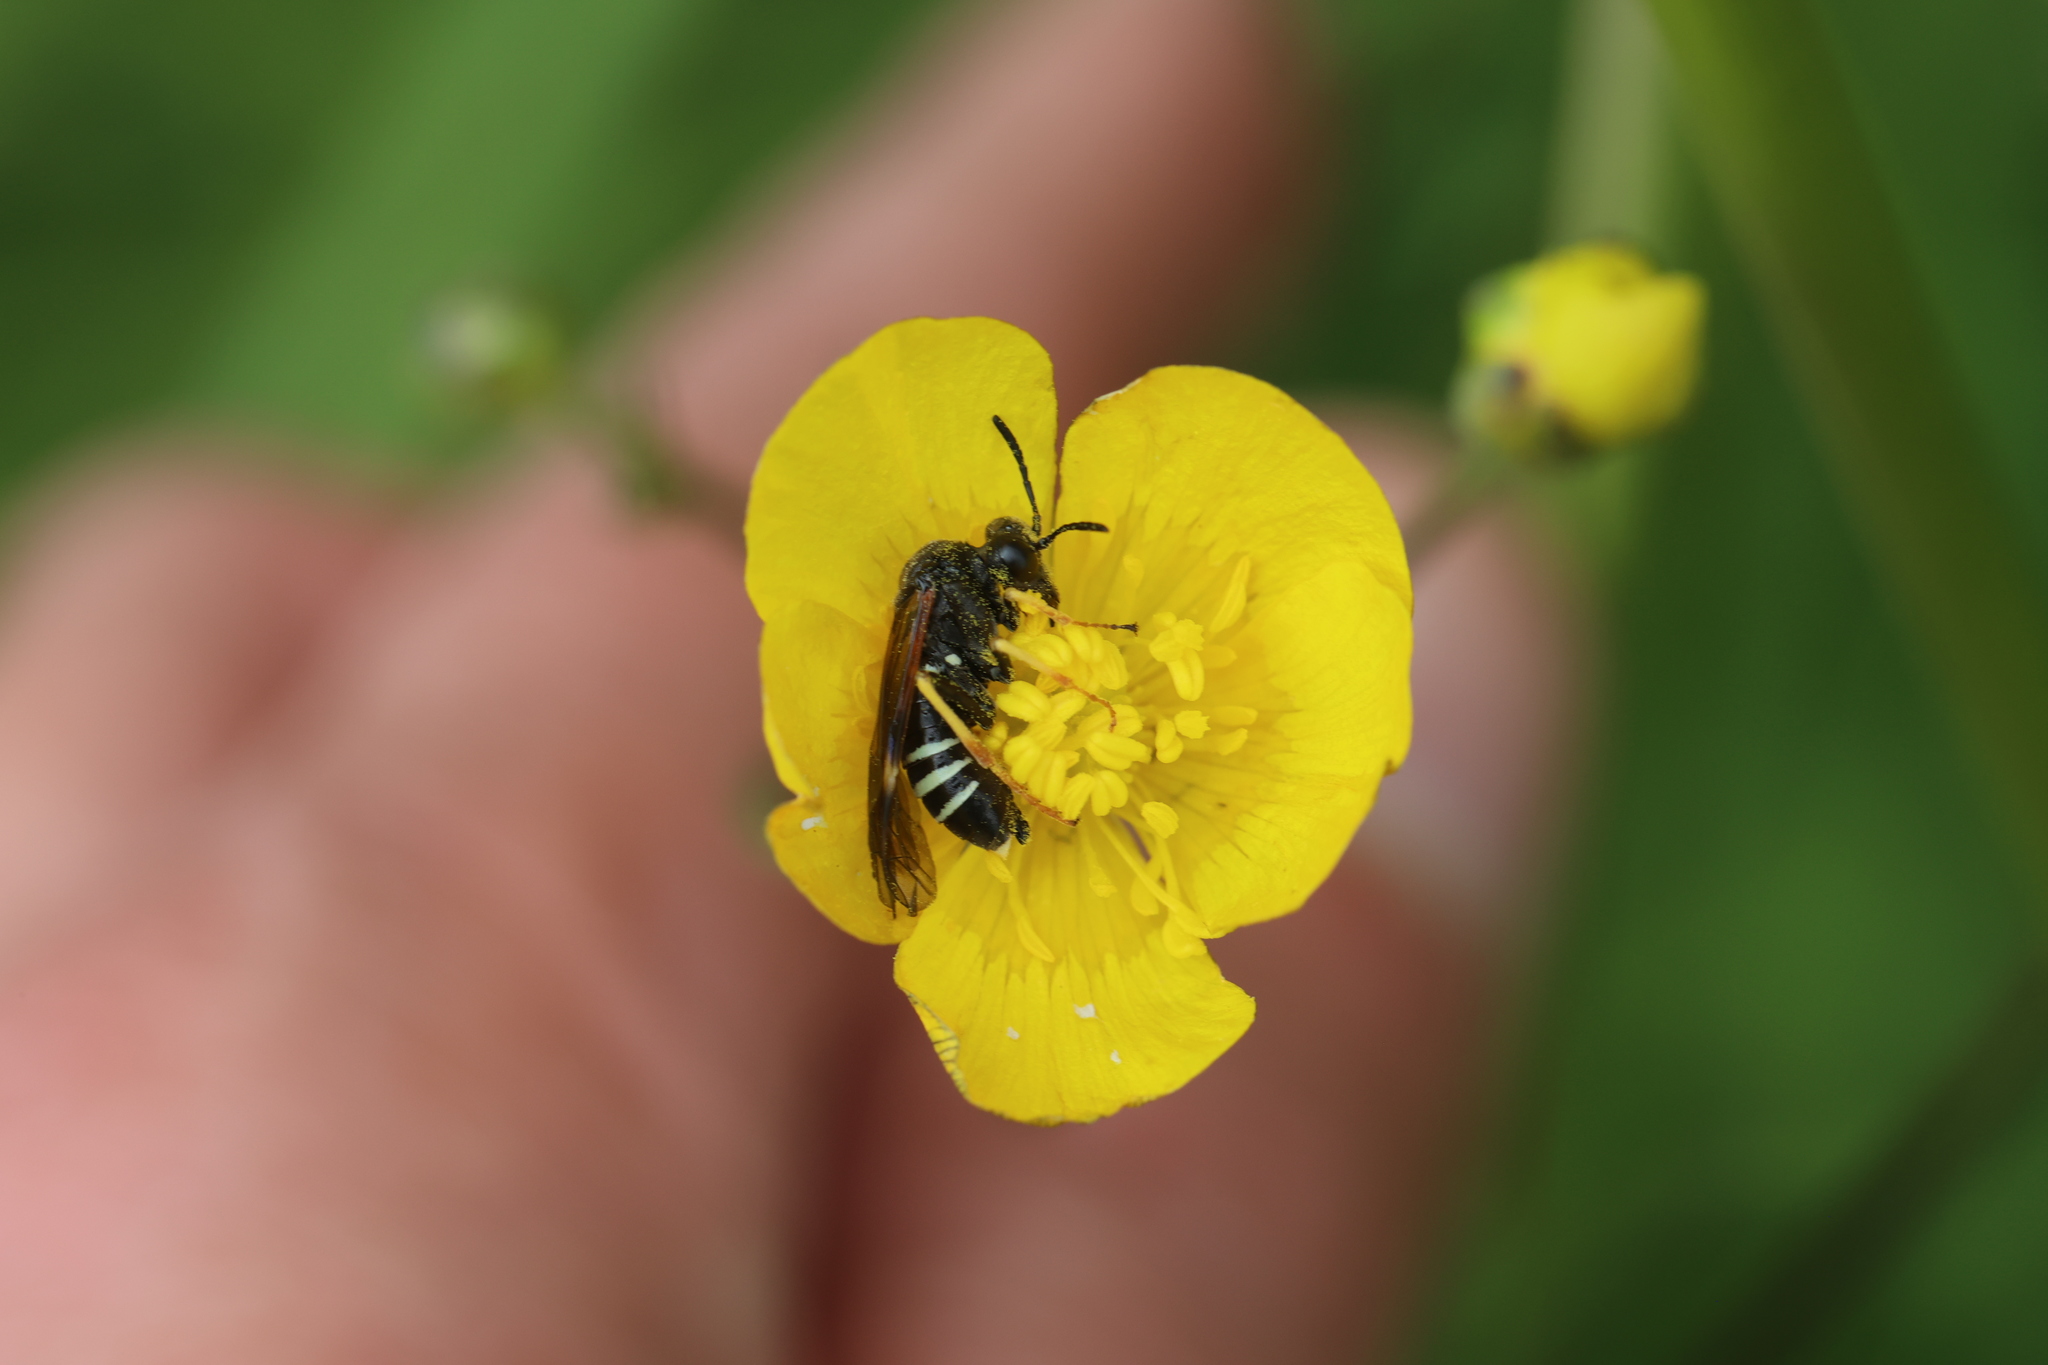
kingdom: Animalia
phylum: Arthropoda
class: Insecta
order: Hymenoptera
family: Tenthredinidae
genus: Tenthredo
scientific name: Tenthredo koehleri
